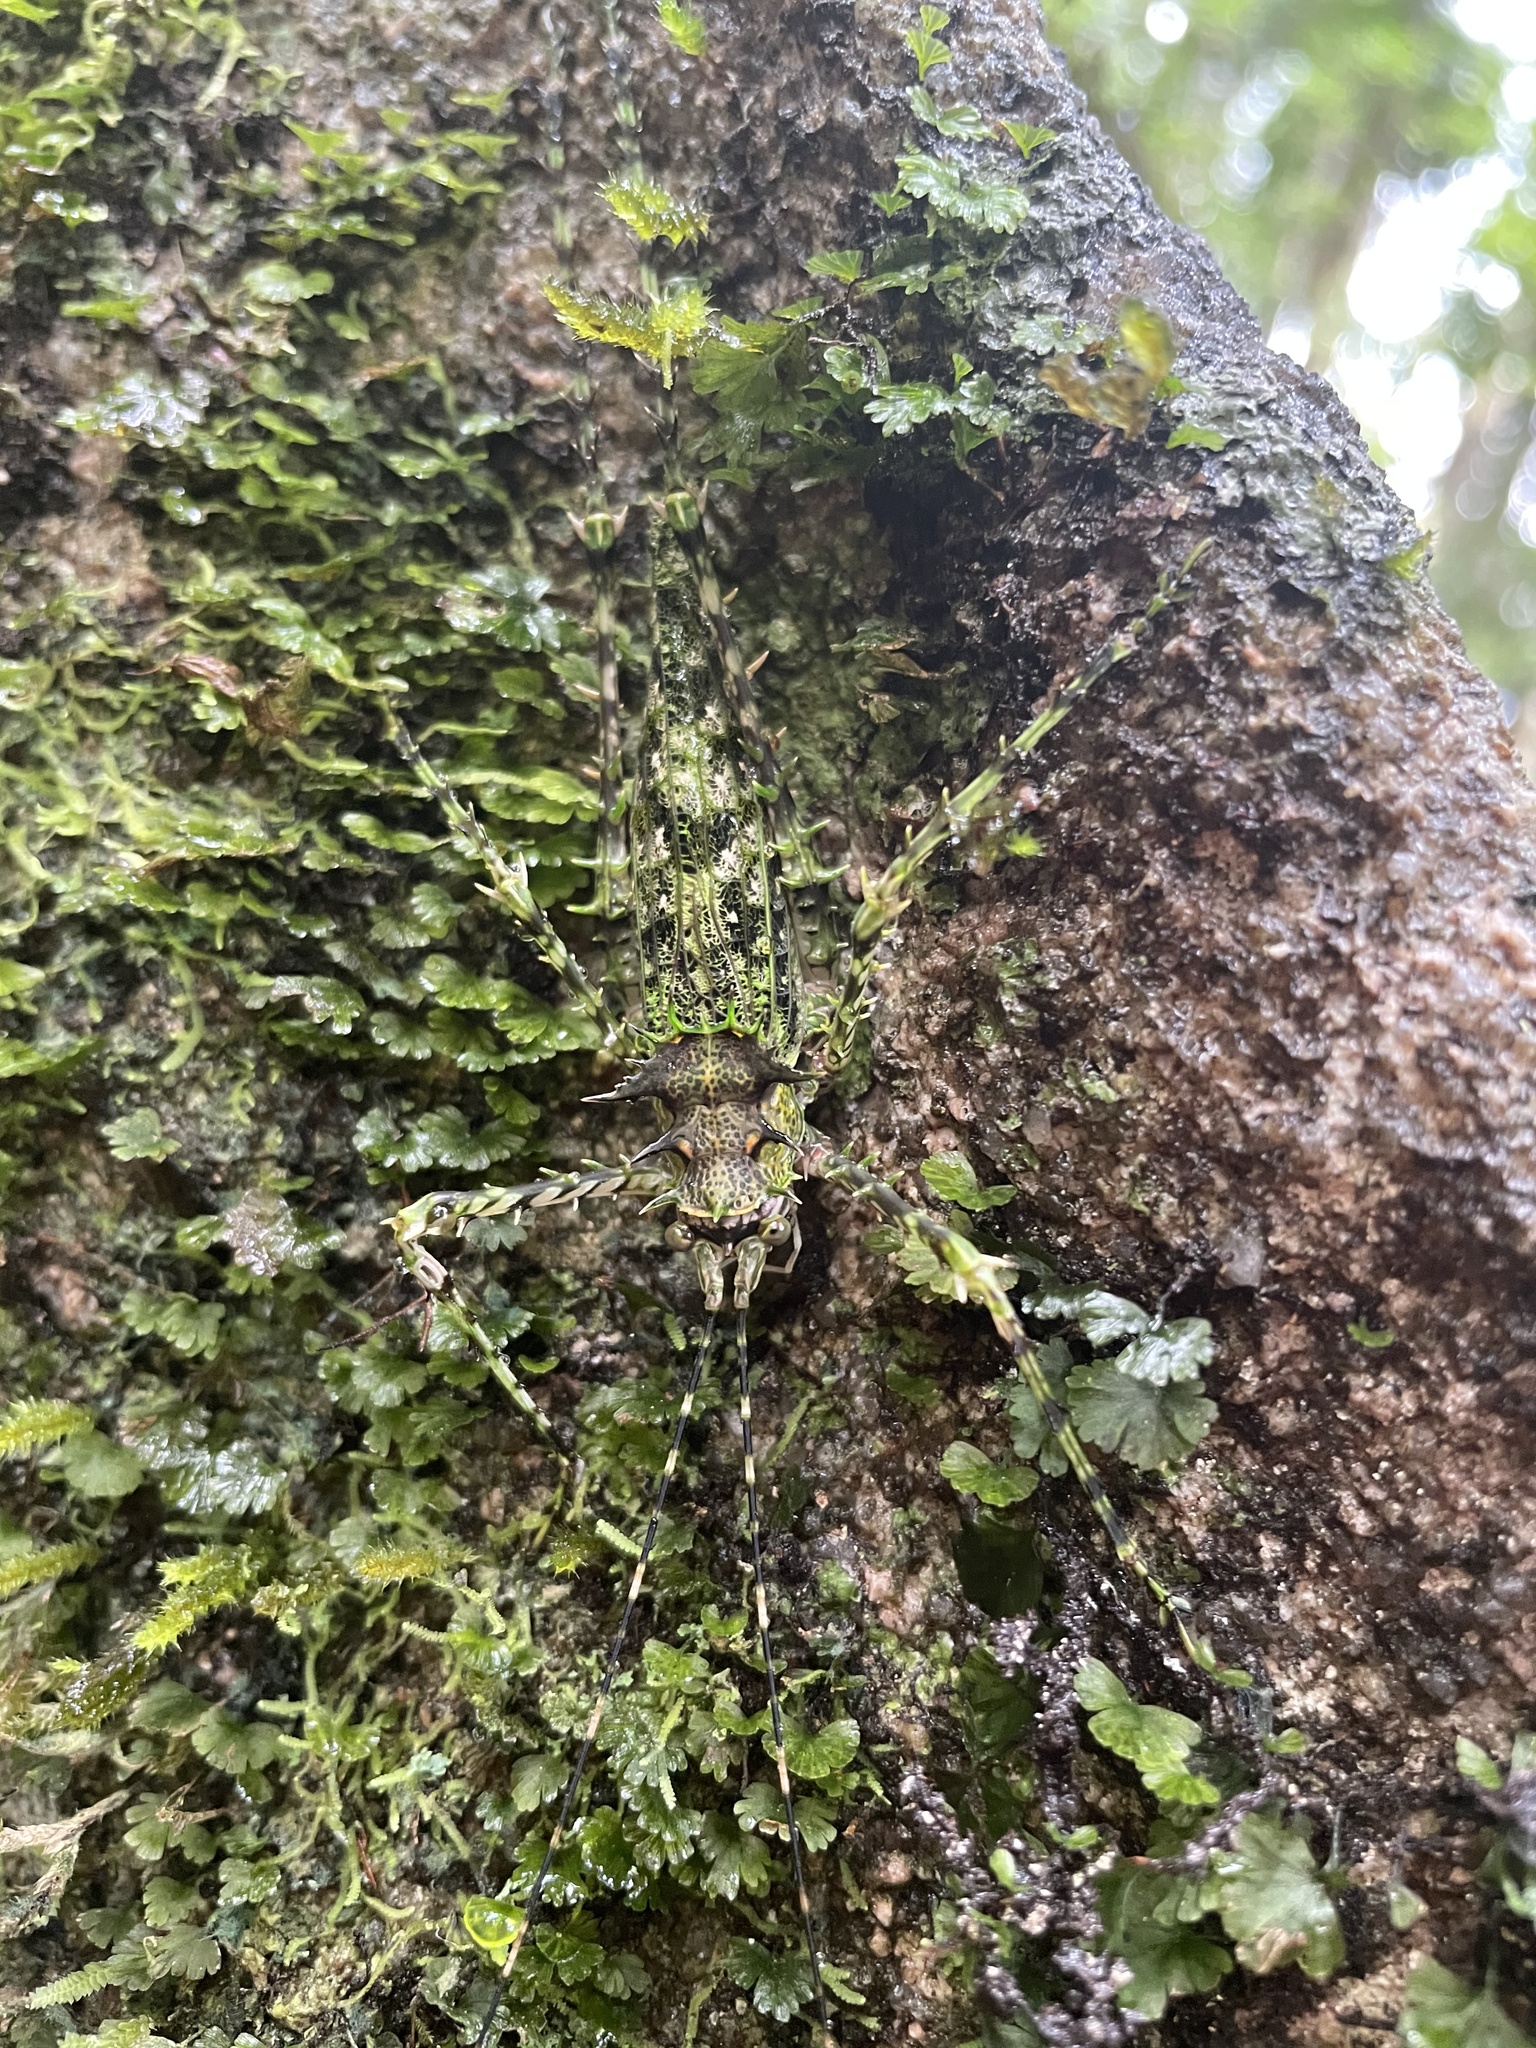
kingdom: Animalia
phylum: Arthropoda
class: Insecta
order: Orthoptera
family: Tettigoniidae
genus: Phricta
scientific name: Phricta zwicka
